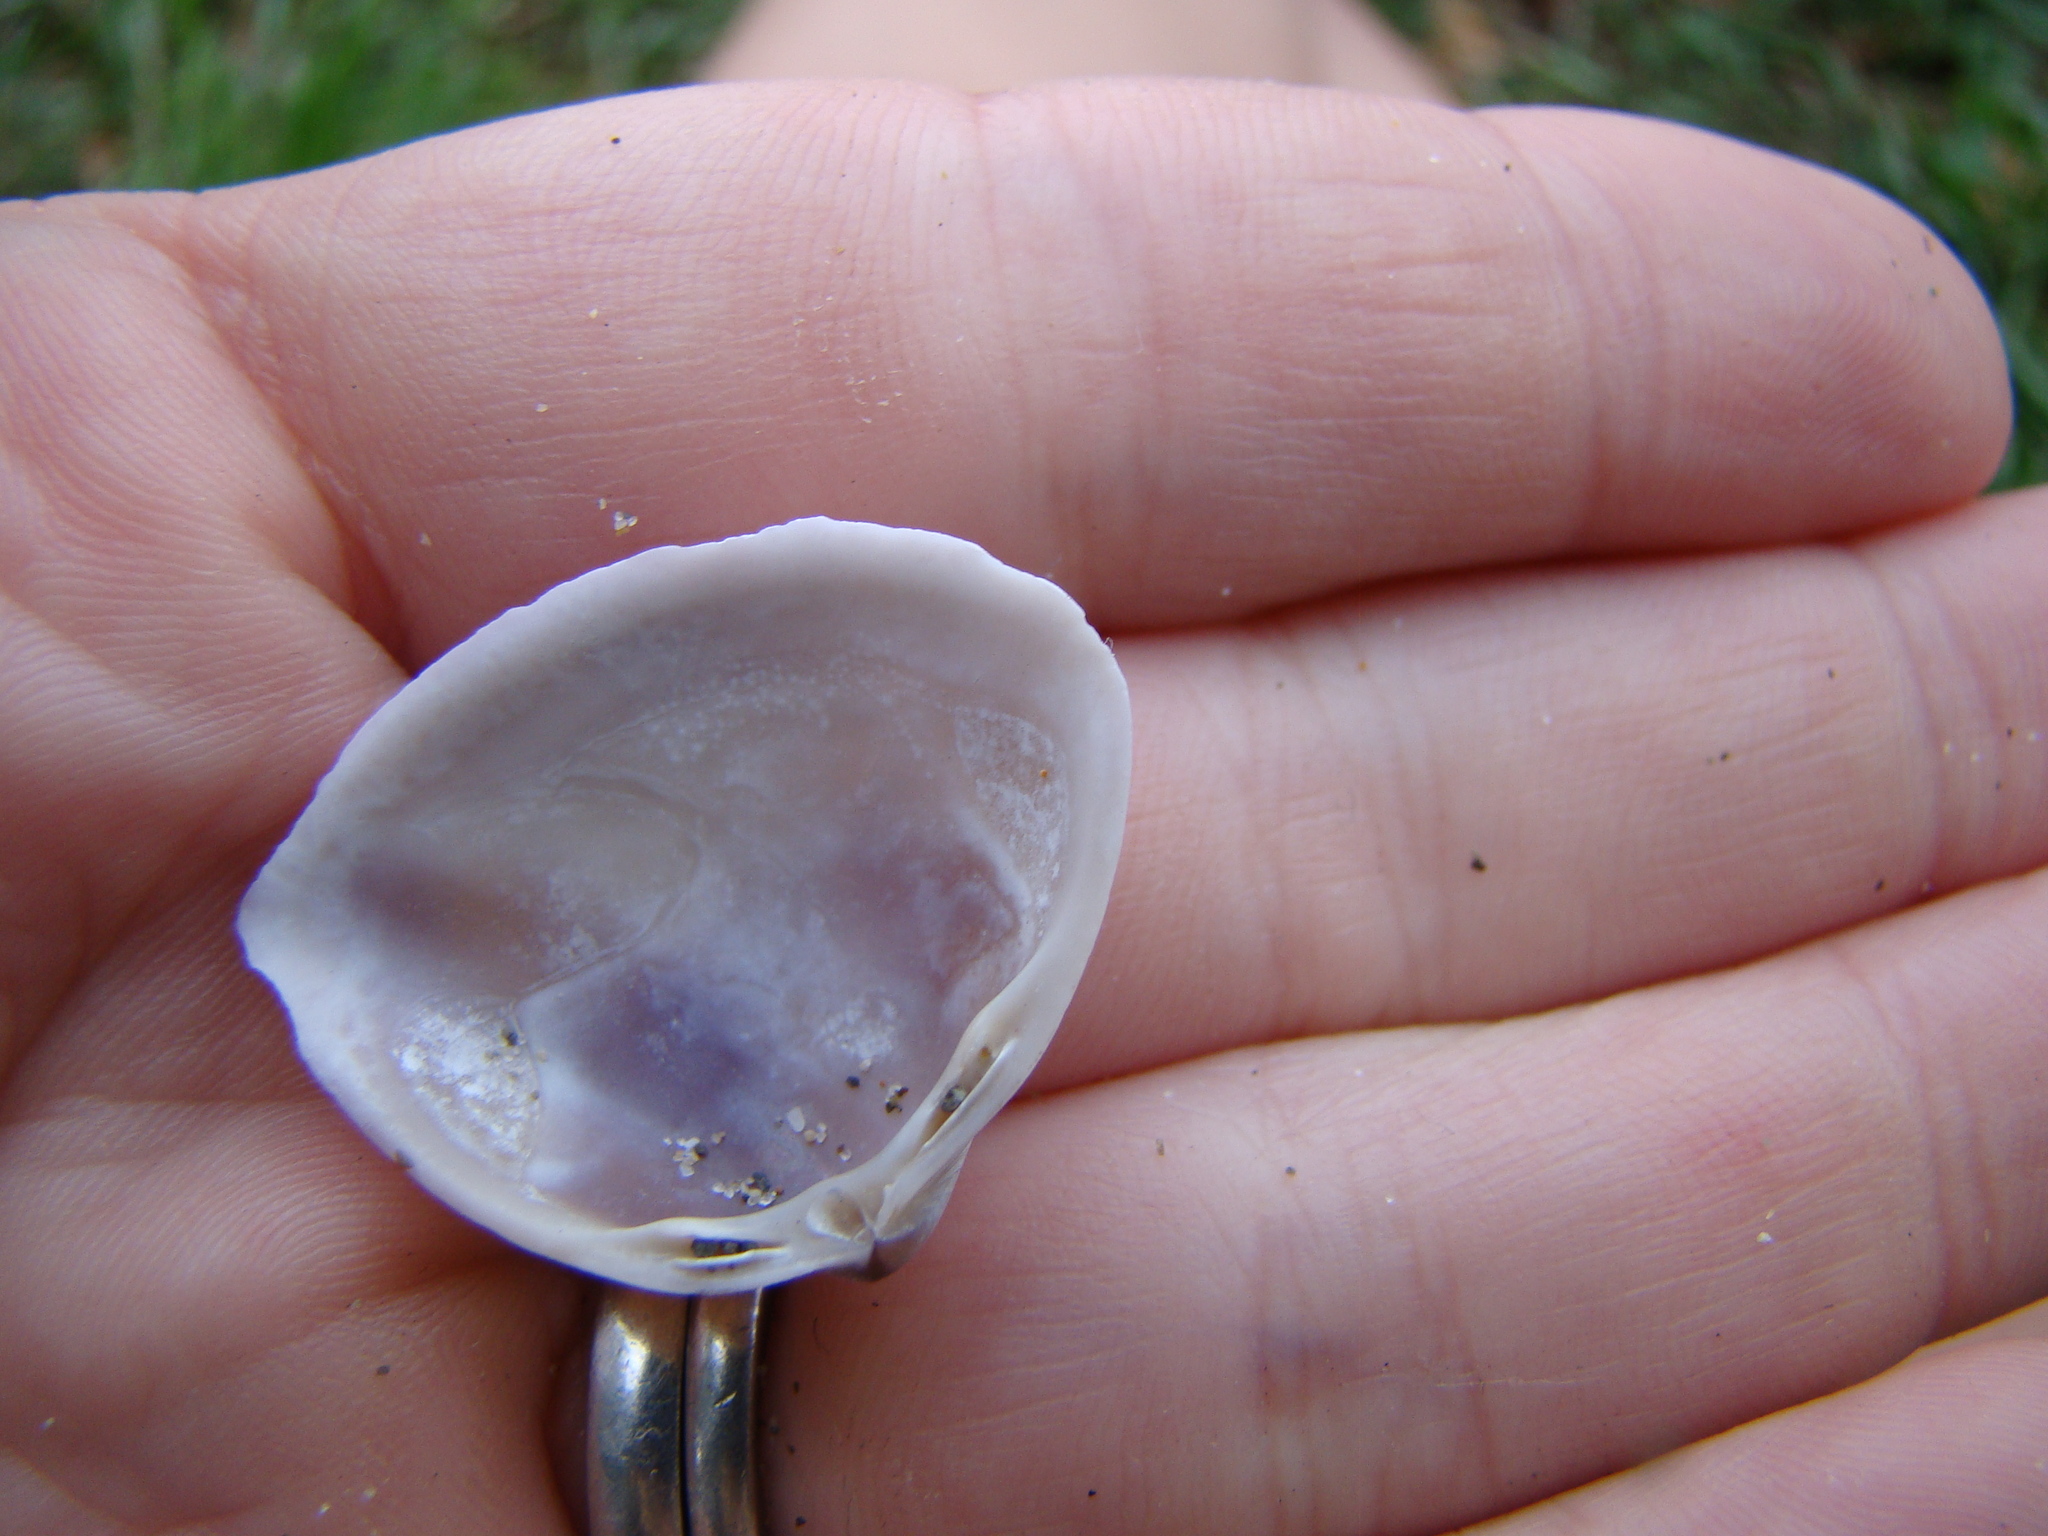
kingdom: Animalia
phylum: Mollusca
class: Bivalvia
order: Venerida
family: Mactridae
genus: Crassula
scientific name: Crassula aequilatera
